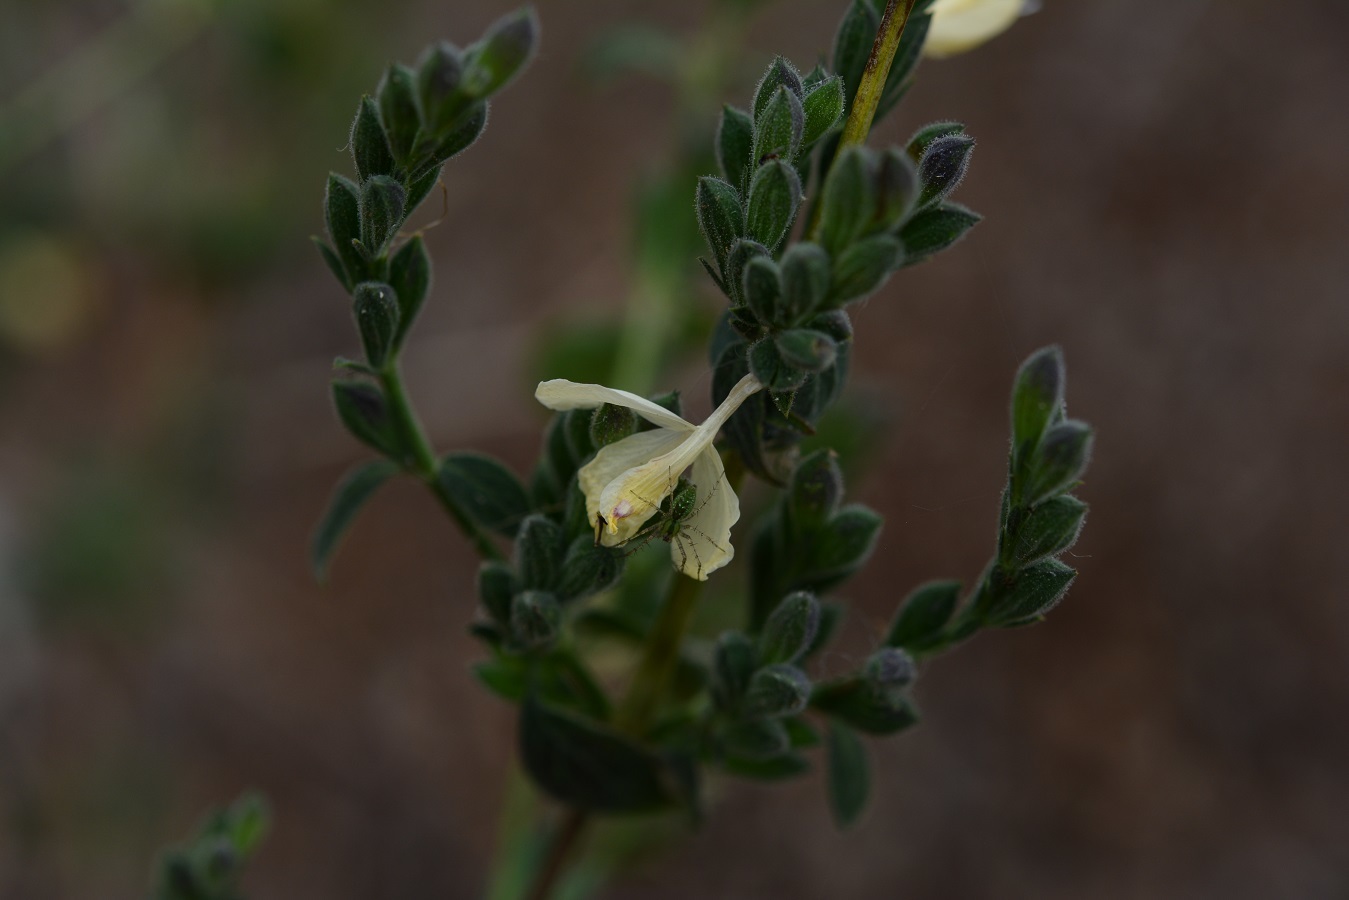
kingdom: Plantae
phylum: Tracheophyta
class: Magnoliopsida
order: Lamiales
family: Acanthaceae
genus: Henrya
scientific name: Henrya insularis
